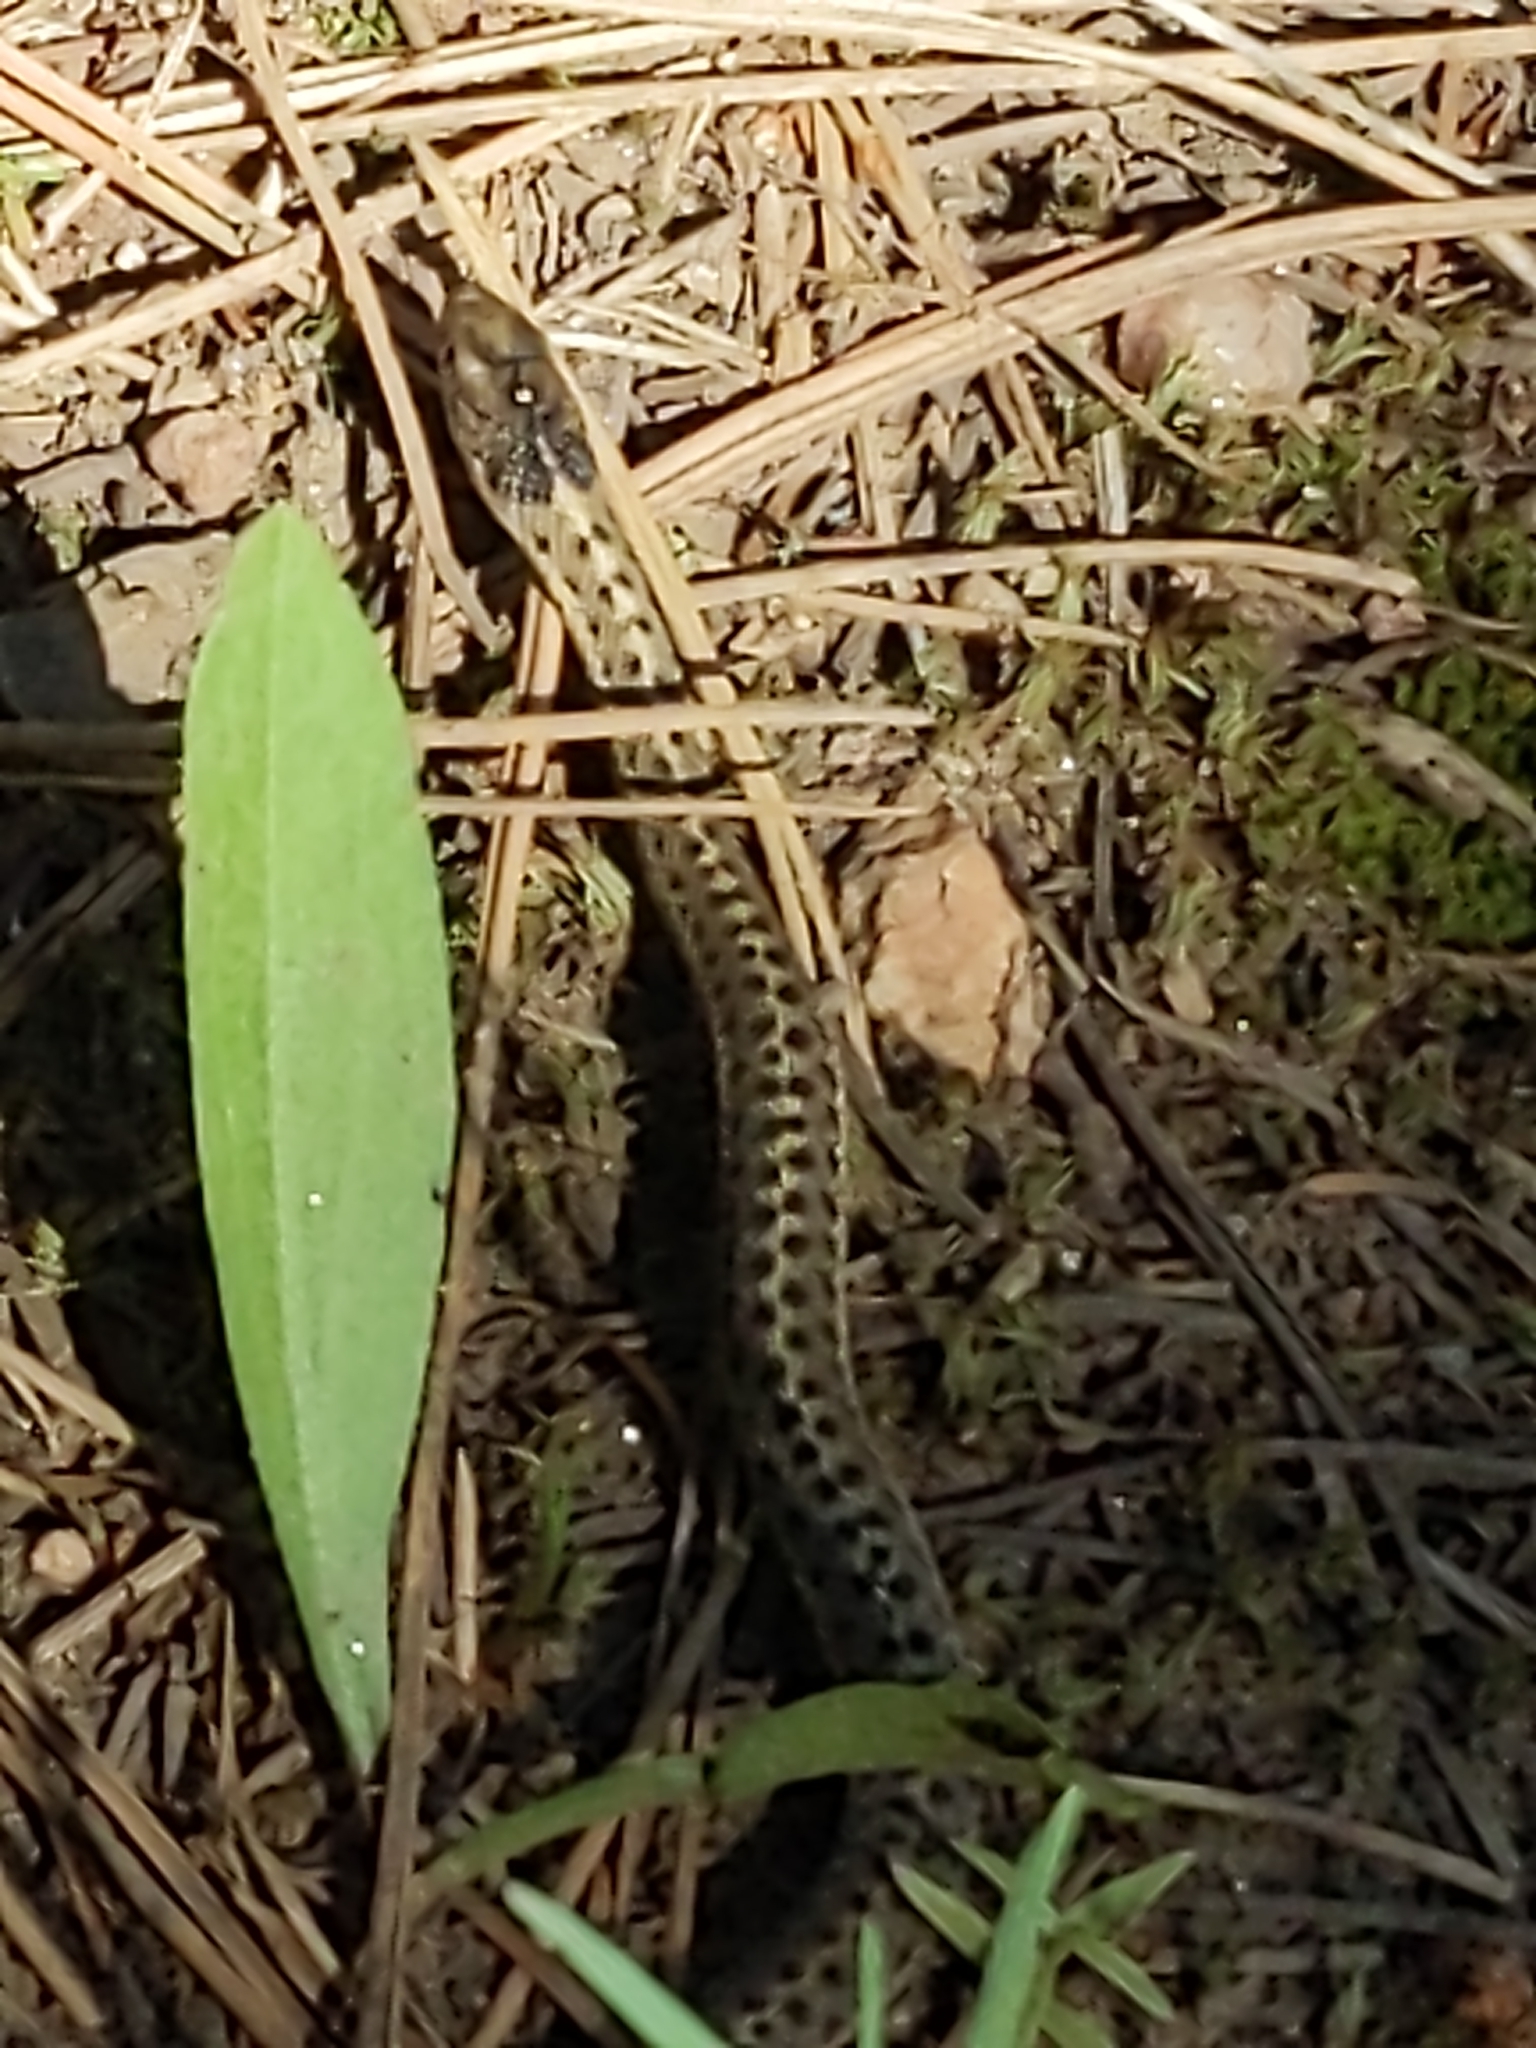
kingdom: Animalia
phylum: Chordata
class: Squamata
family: Colubridae
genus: Thamnophis
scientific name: Thamnophis elegans
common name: Western terrestrial garter snake
